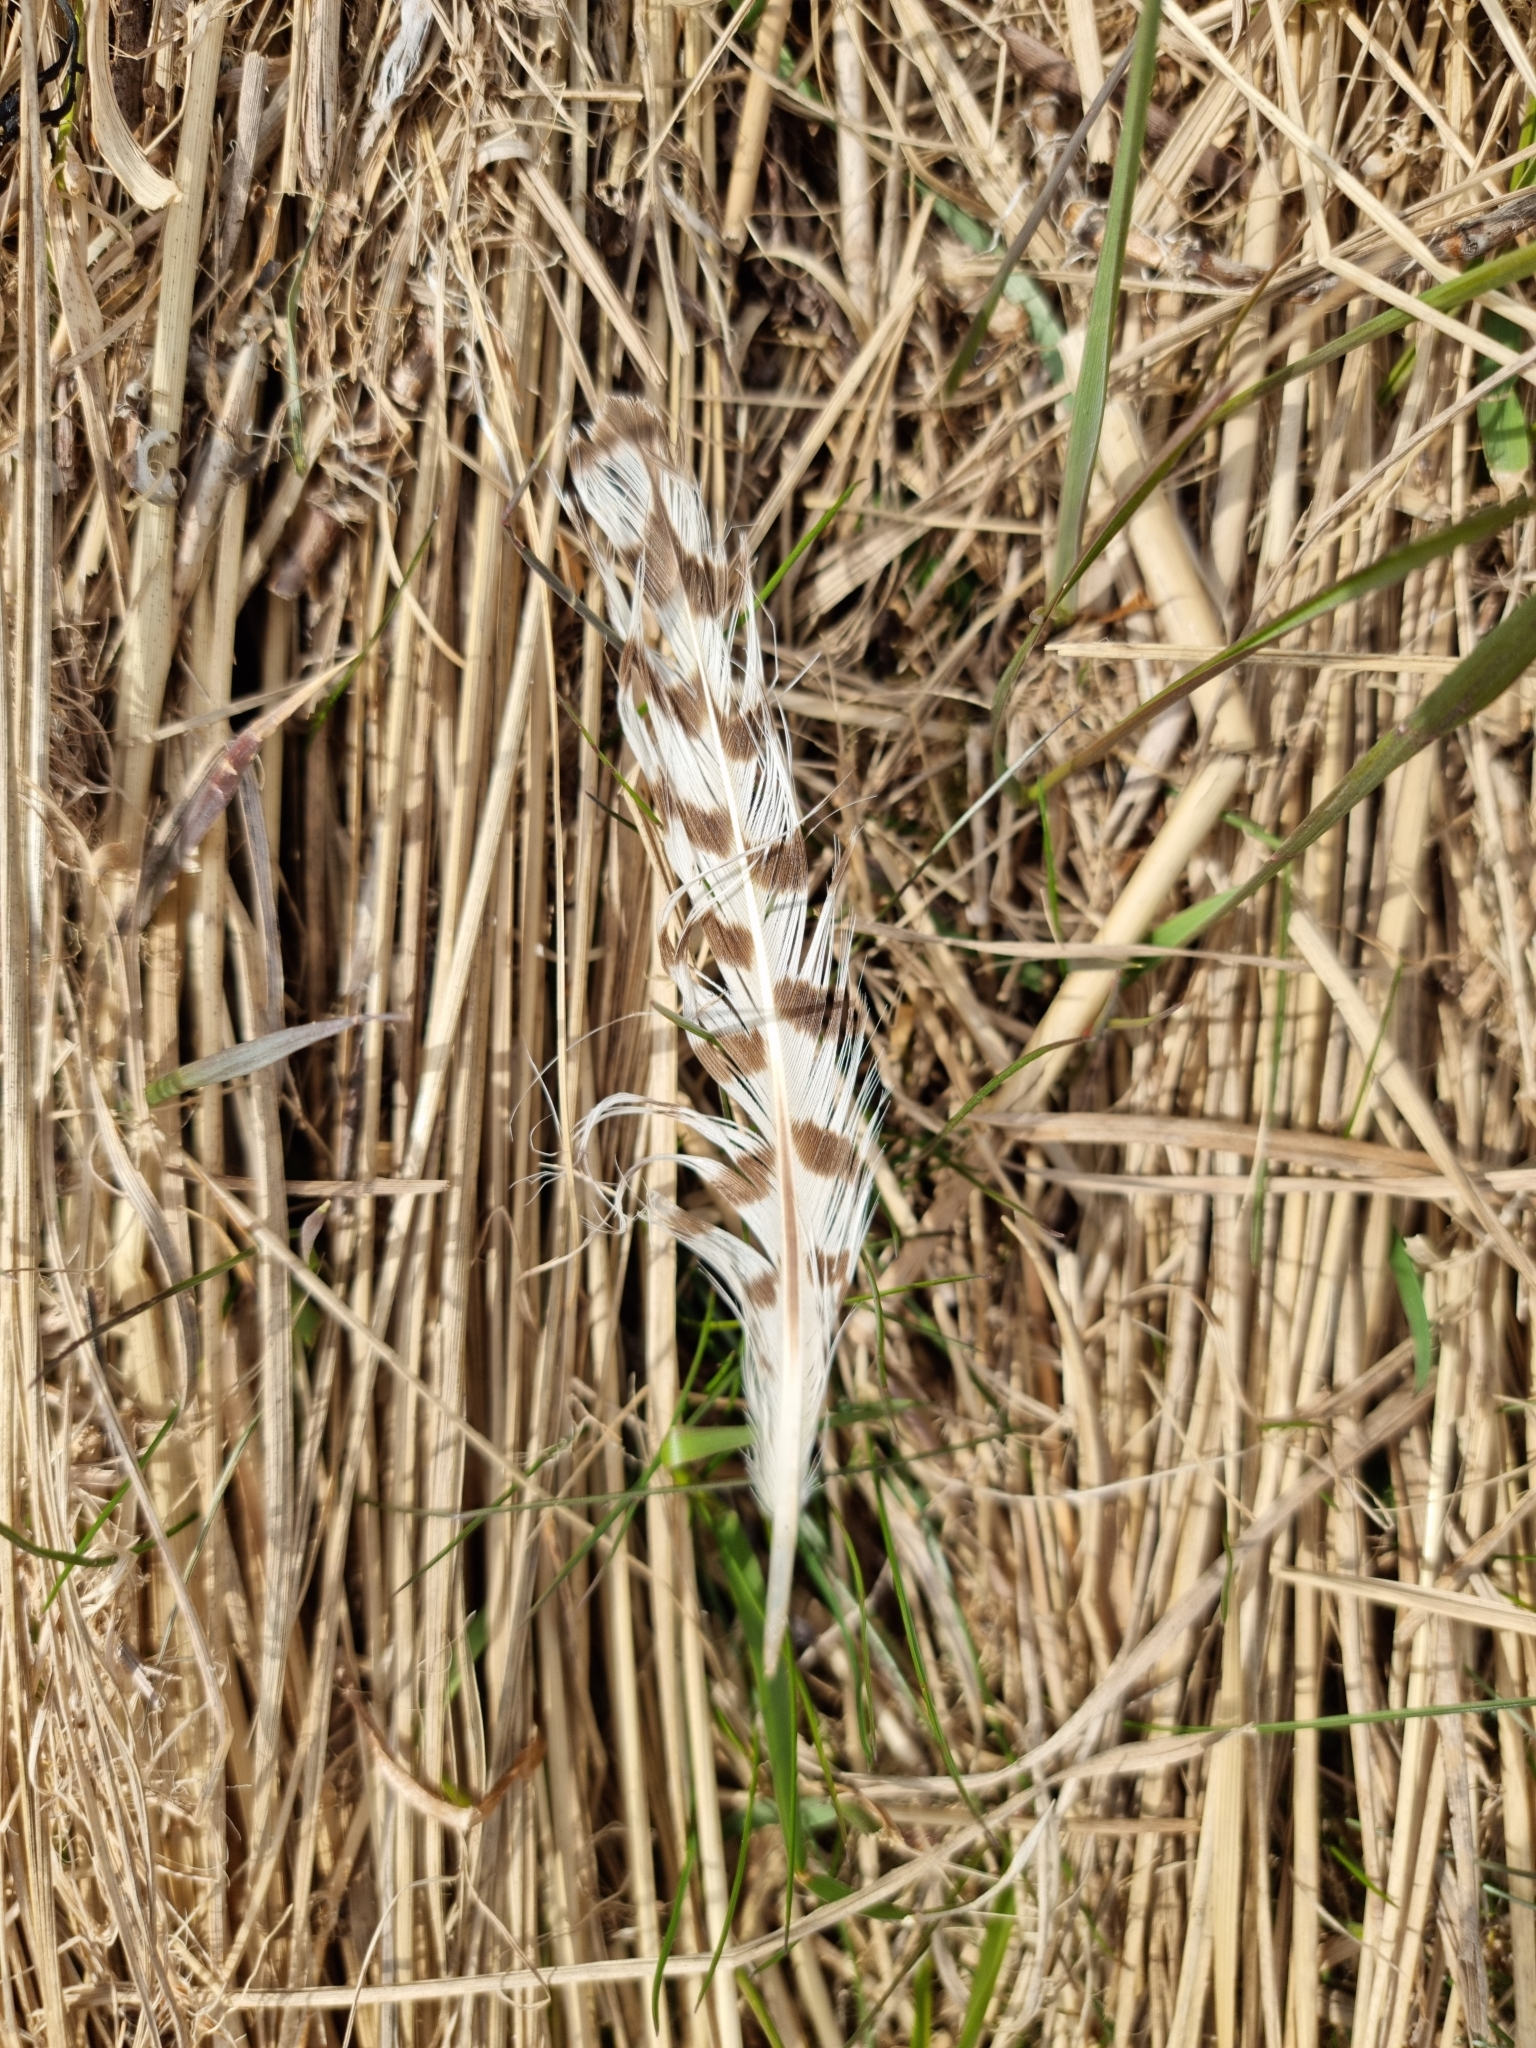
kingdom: Animalia
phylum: Chordata
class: Aves
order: Charadriiformes
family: Scolopacidae
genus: Numenius
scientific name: Numenius arquata
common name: Eurasian curlew
